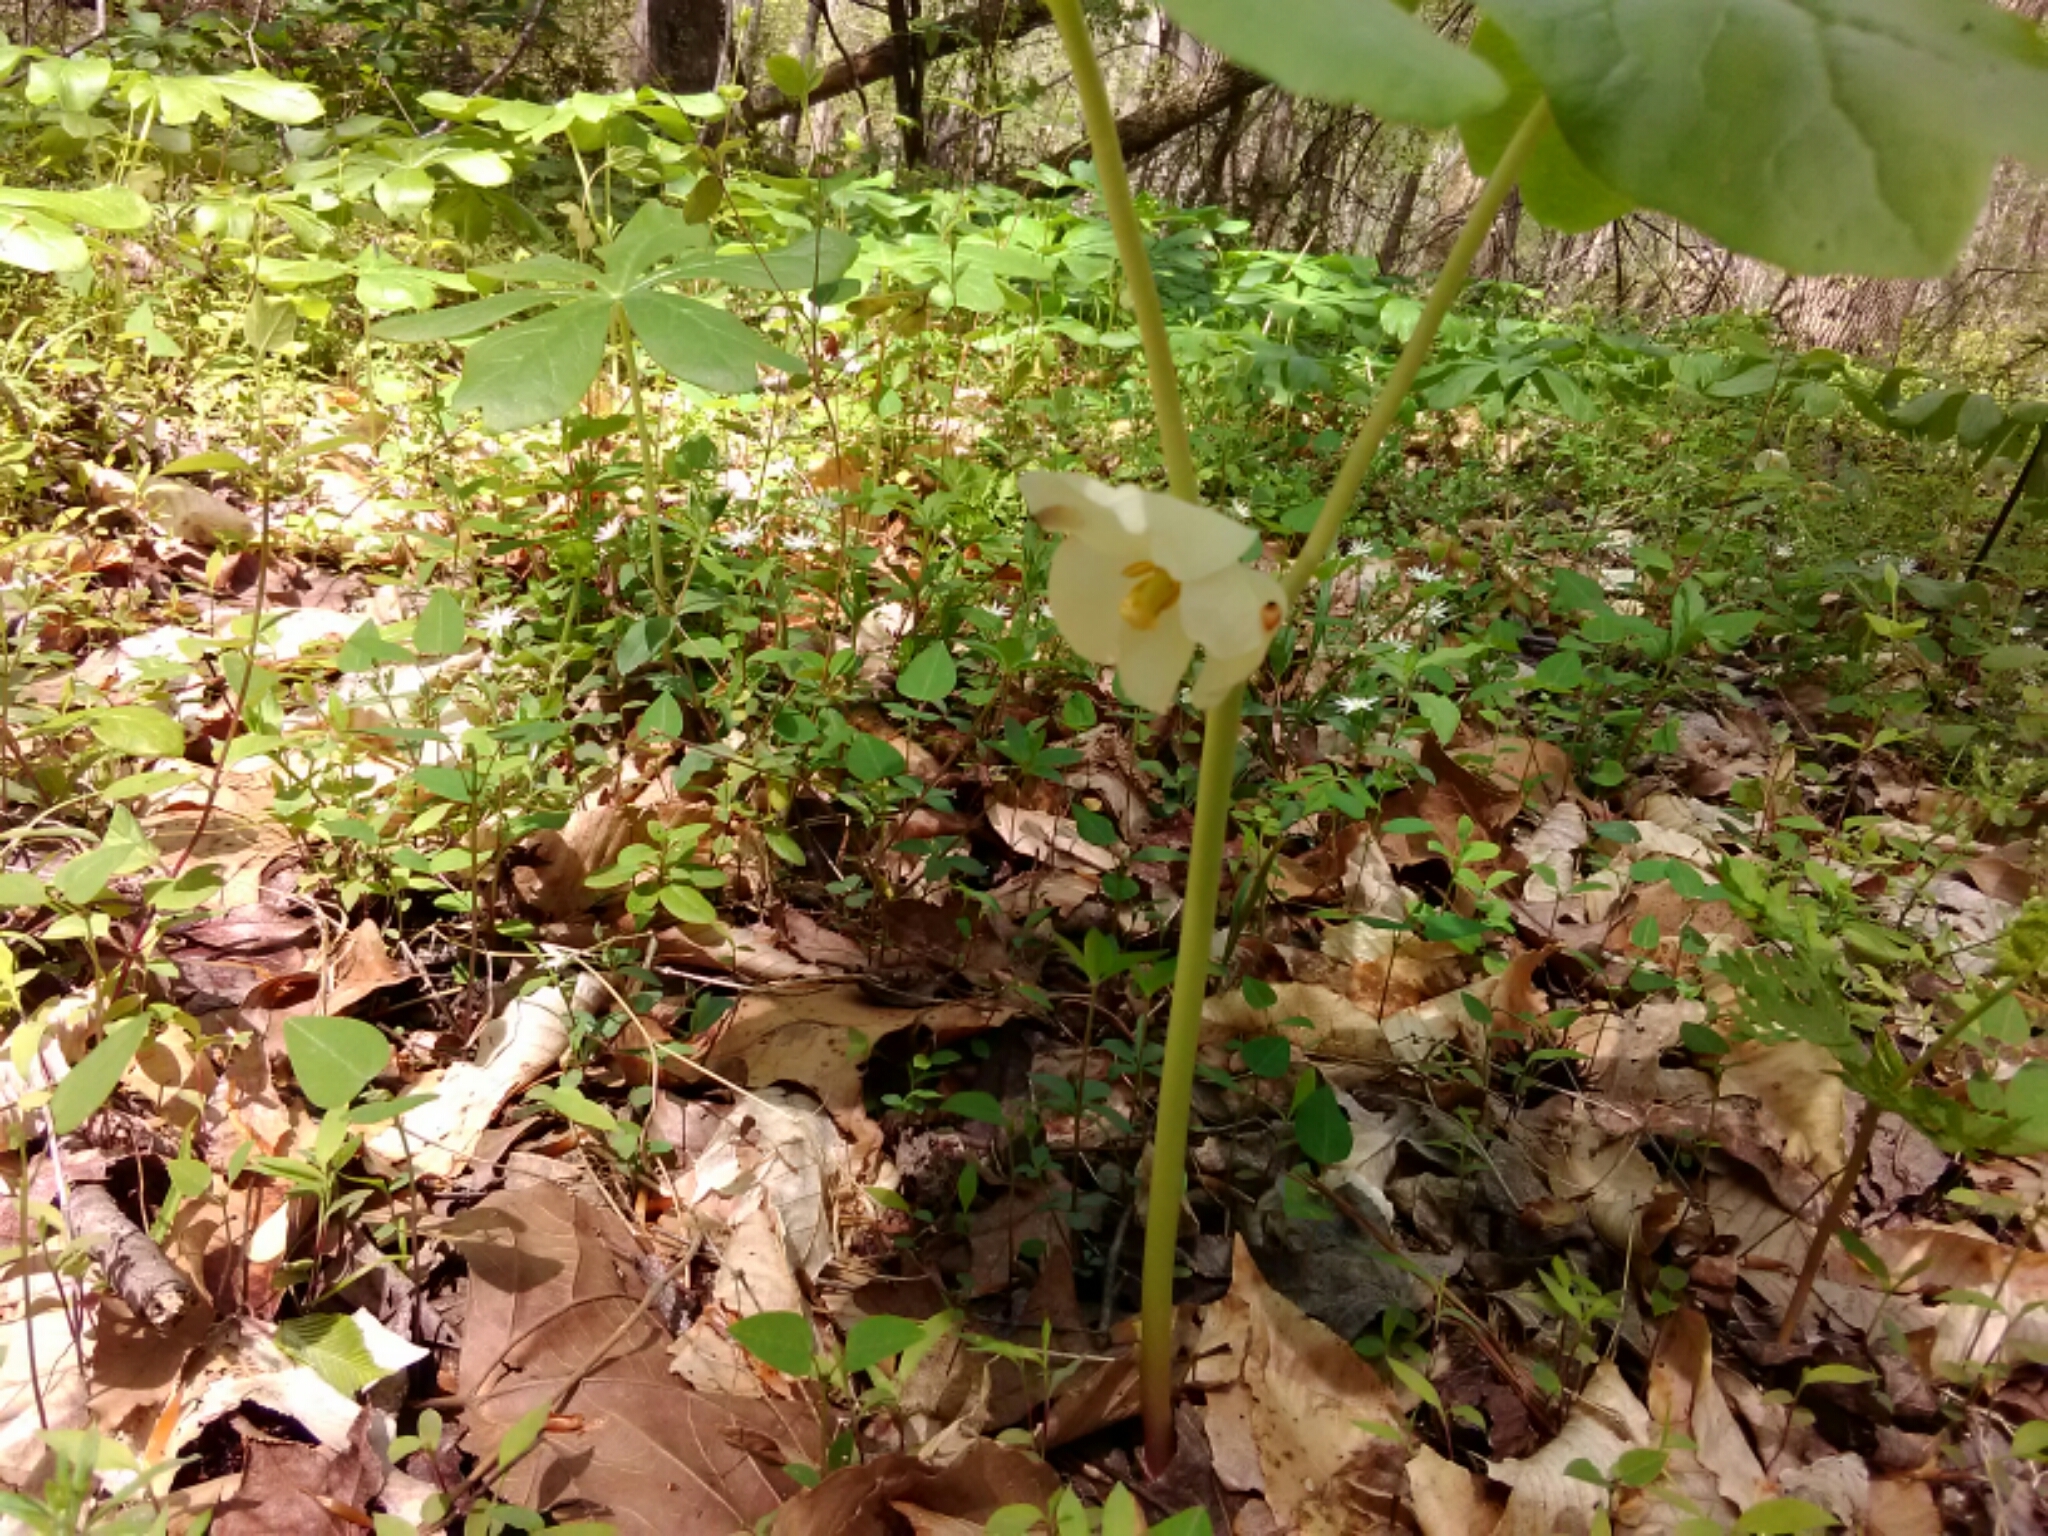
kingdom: Plantae
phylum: Tracheophyta
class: Magnoliopsida
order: Ranunculales
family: Berberidaceae
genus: Podophyllum
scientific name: Podophyllum peltatum
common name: Wild mandrake
